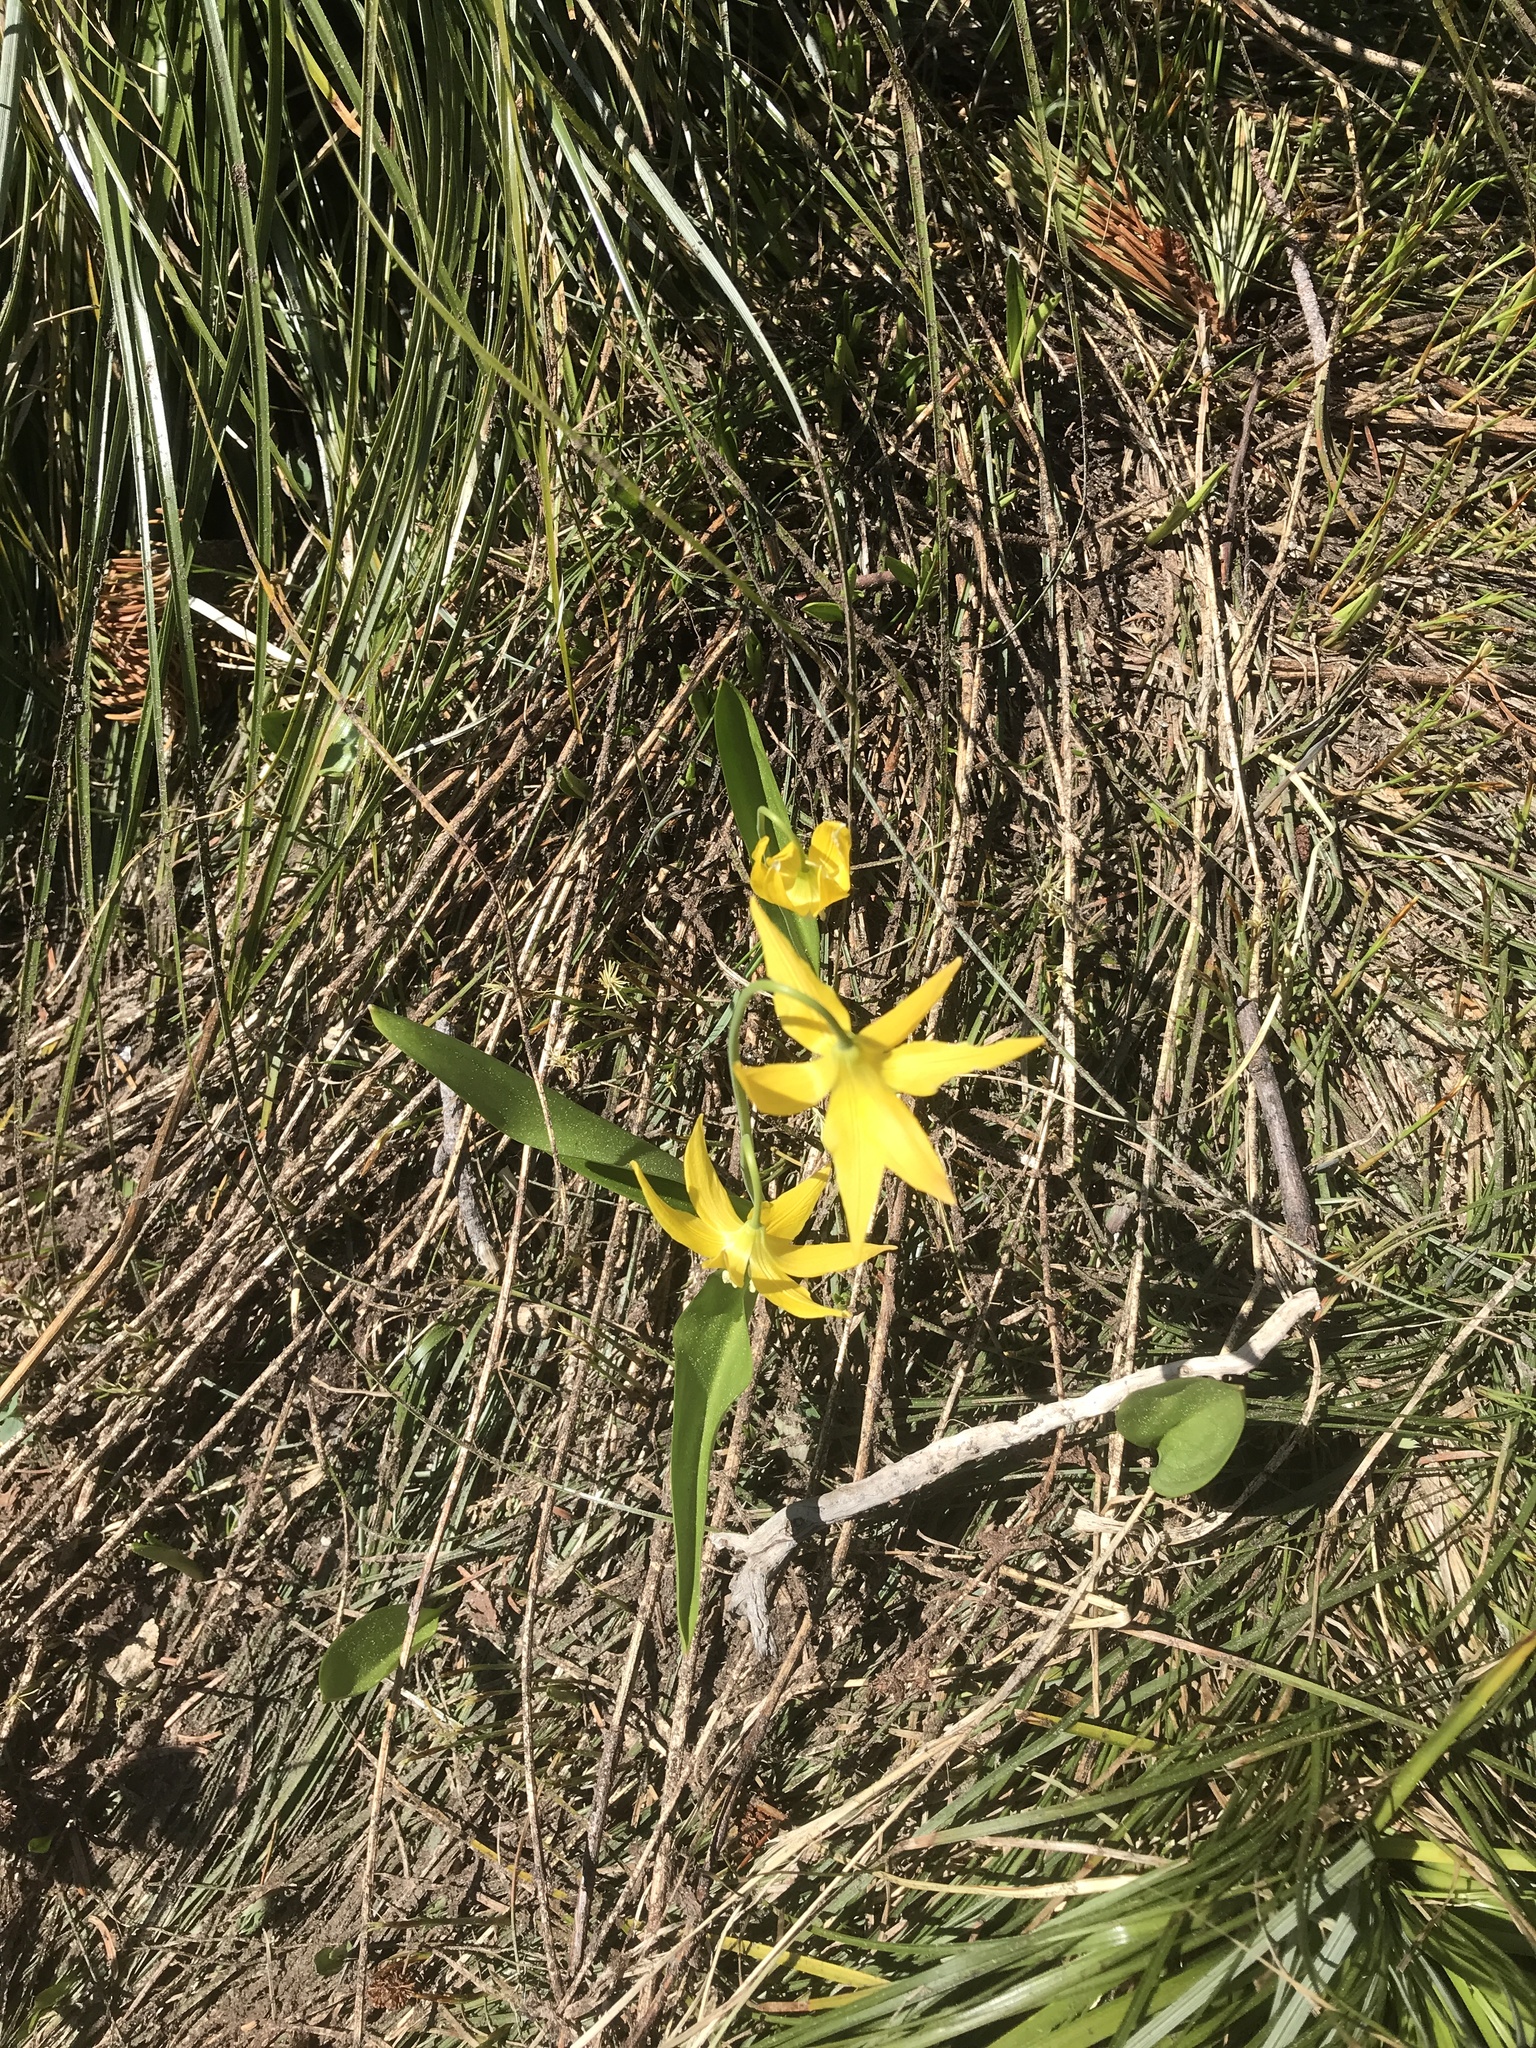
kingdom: Plantae
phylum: Tracheophyta
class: Liliopsida
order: Liliales
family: Liliaceae
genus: Erythronium
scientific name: Erythronium grandiflorum
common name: Avalanche-lily
